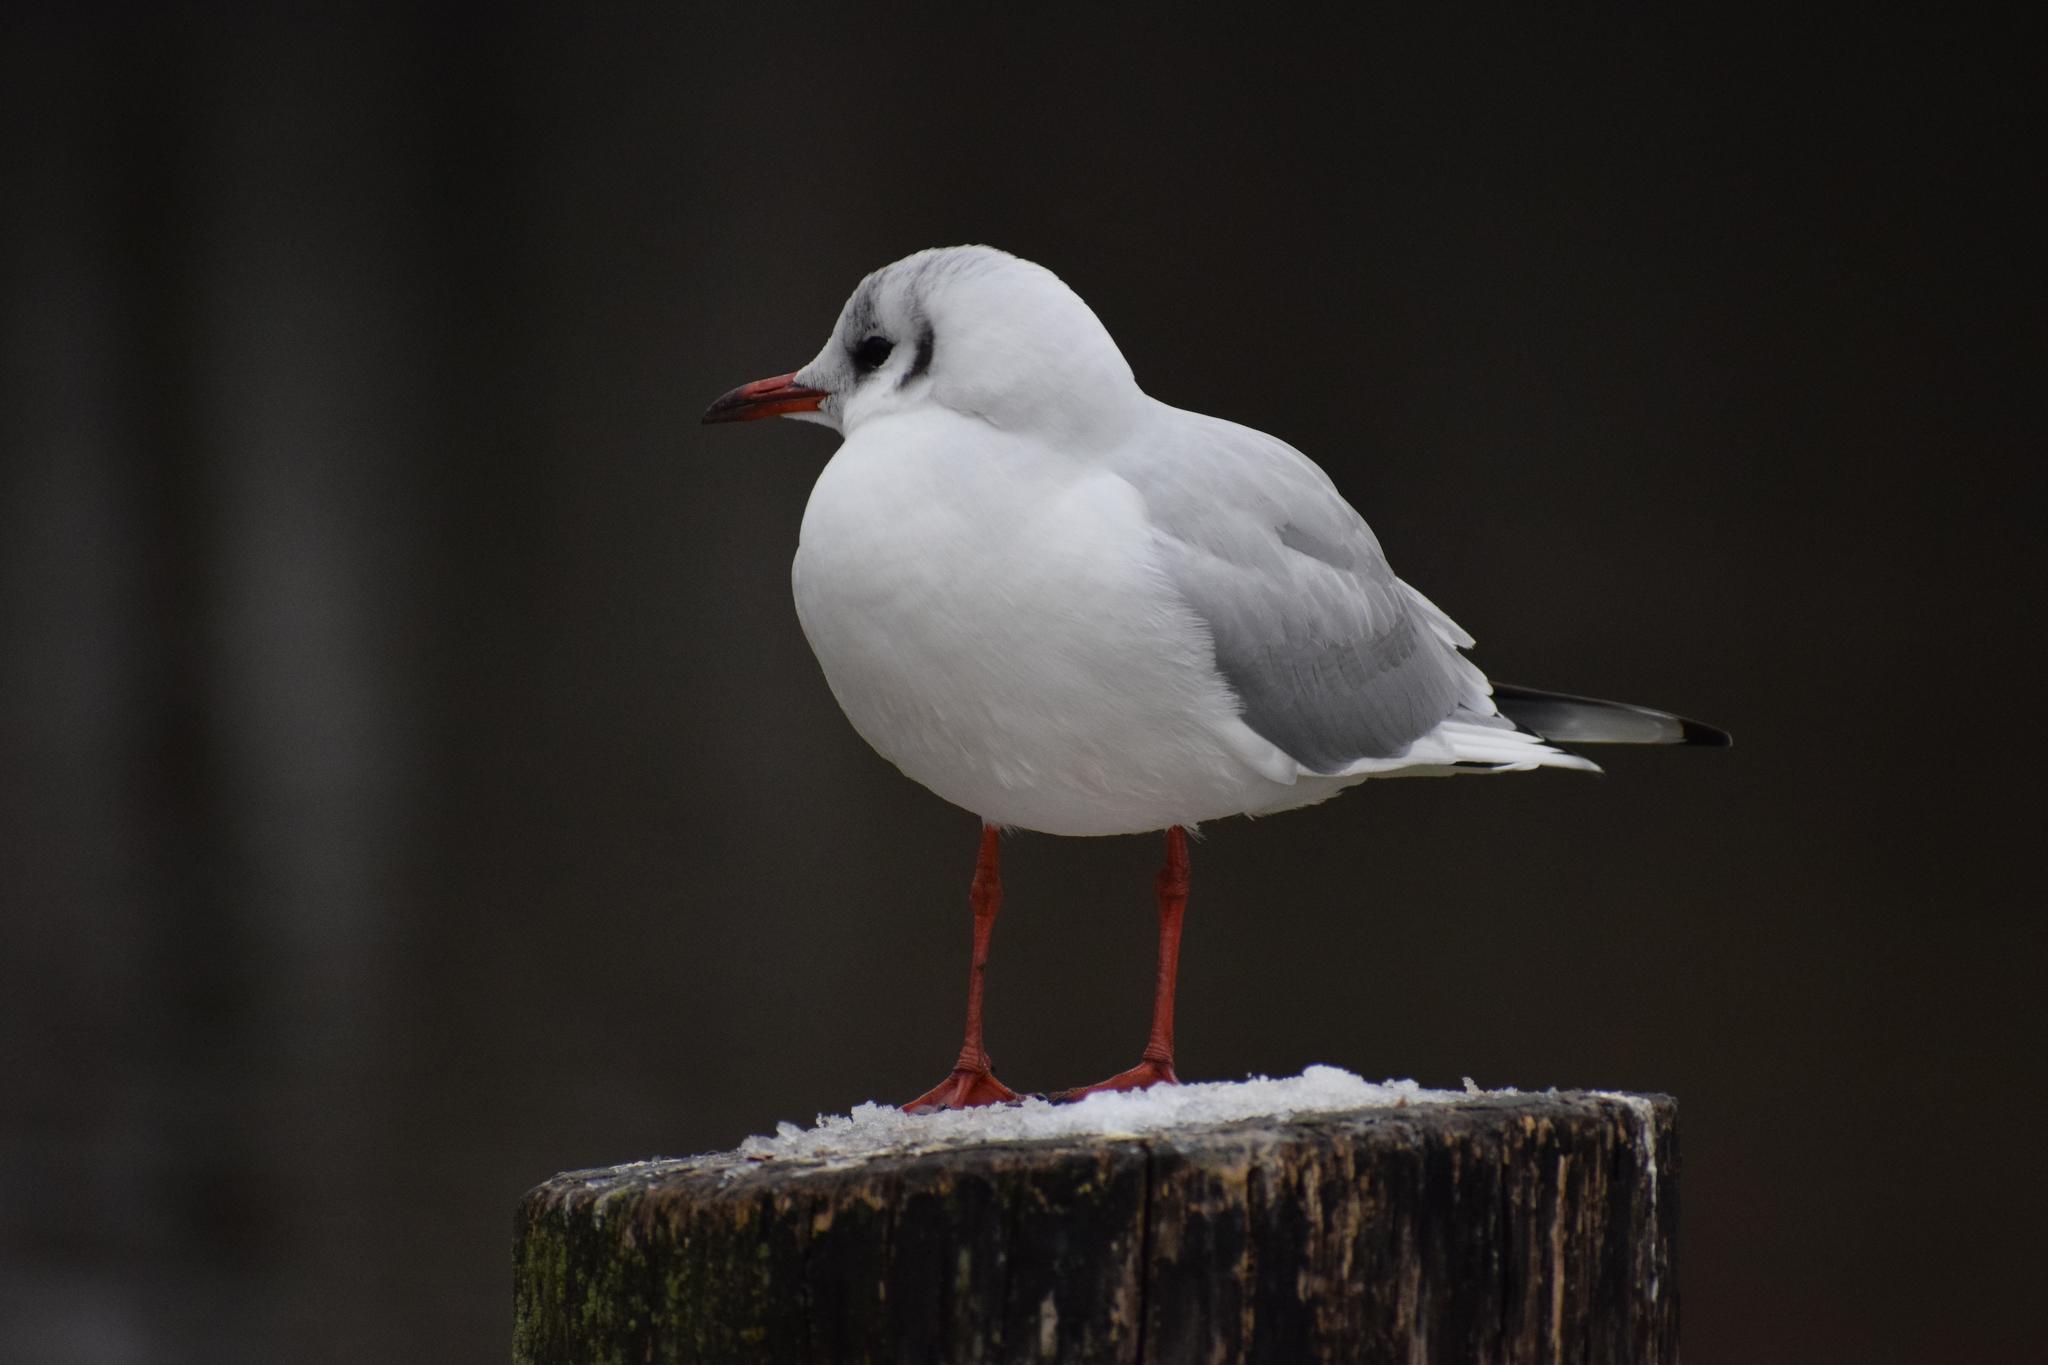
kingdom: Animalia
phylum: Chordata
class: Aves
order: Charadriiformes
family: Laridae
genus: Chroicocephalus
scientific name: Chroicocephalus ridibundus
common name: Black-headed gull
